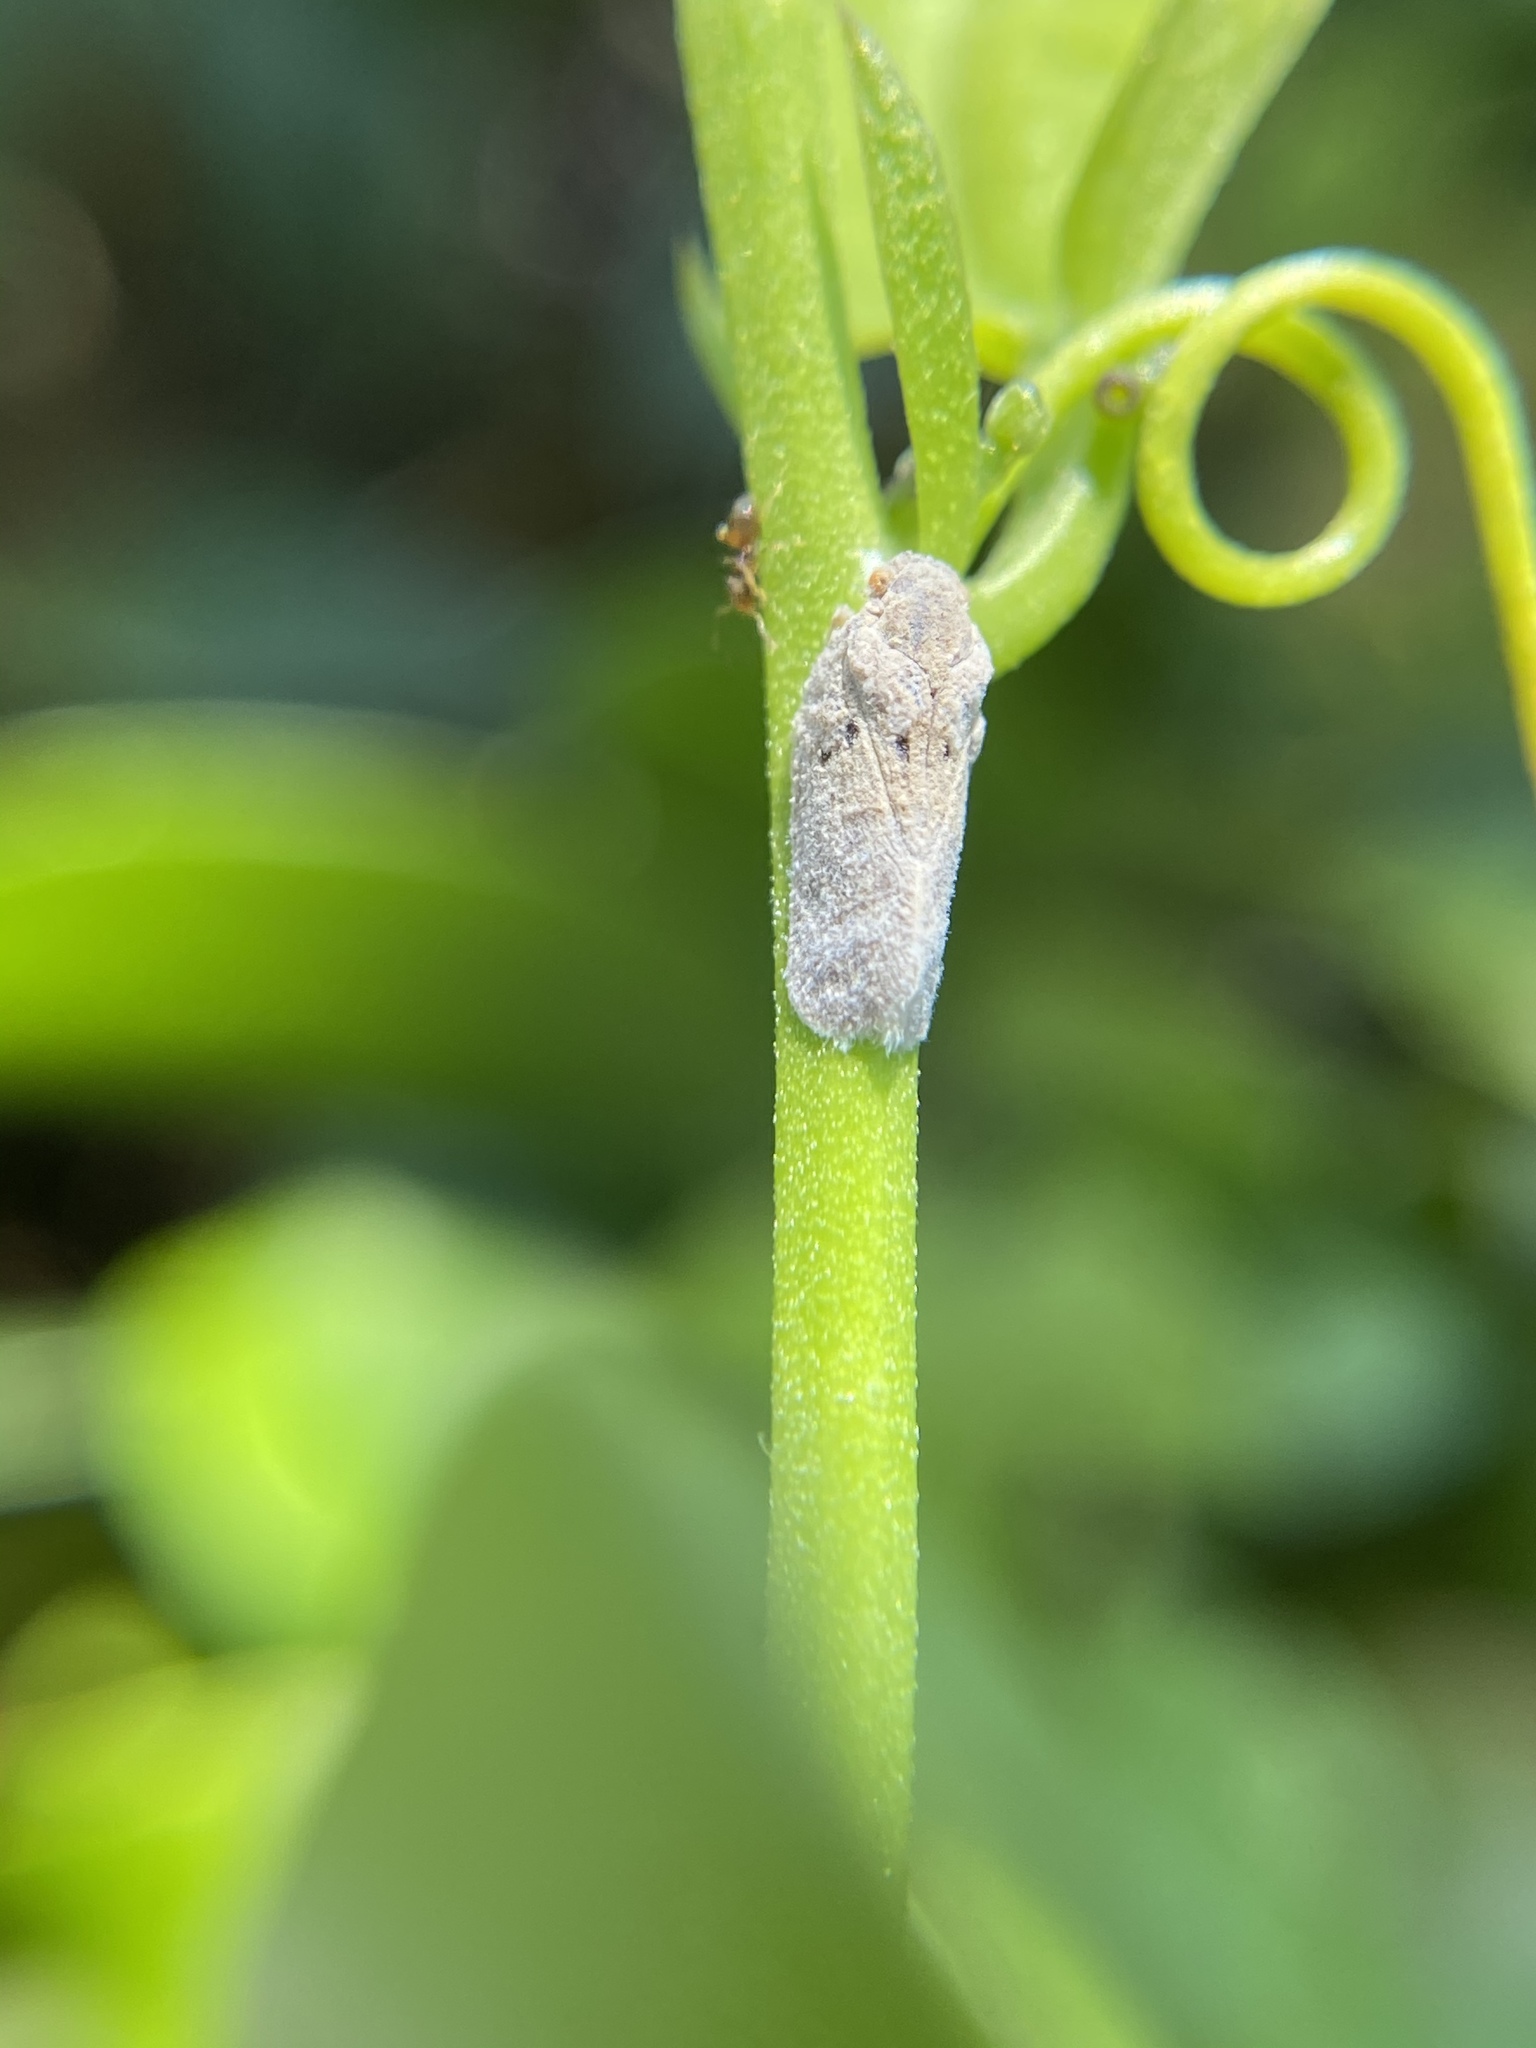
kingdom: Animalia
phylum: Arthropoda
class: Insecta
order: Hemiptera
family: Flatidae
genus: Melormenis
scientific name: Melormenis basalis
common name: Puerto rican planthopper
